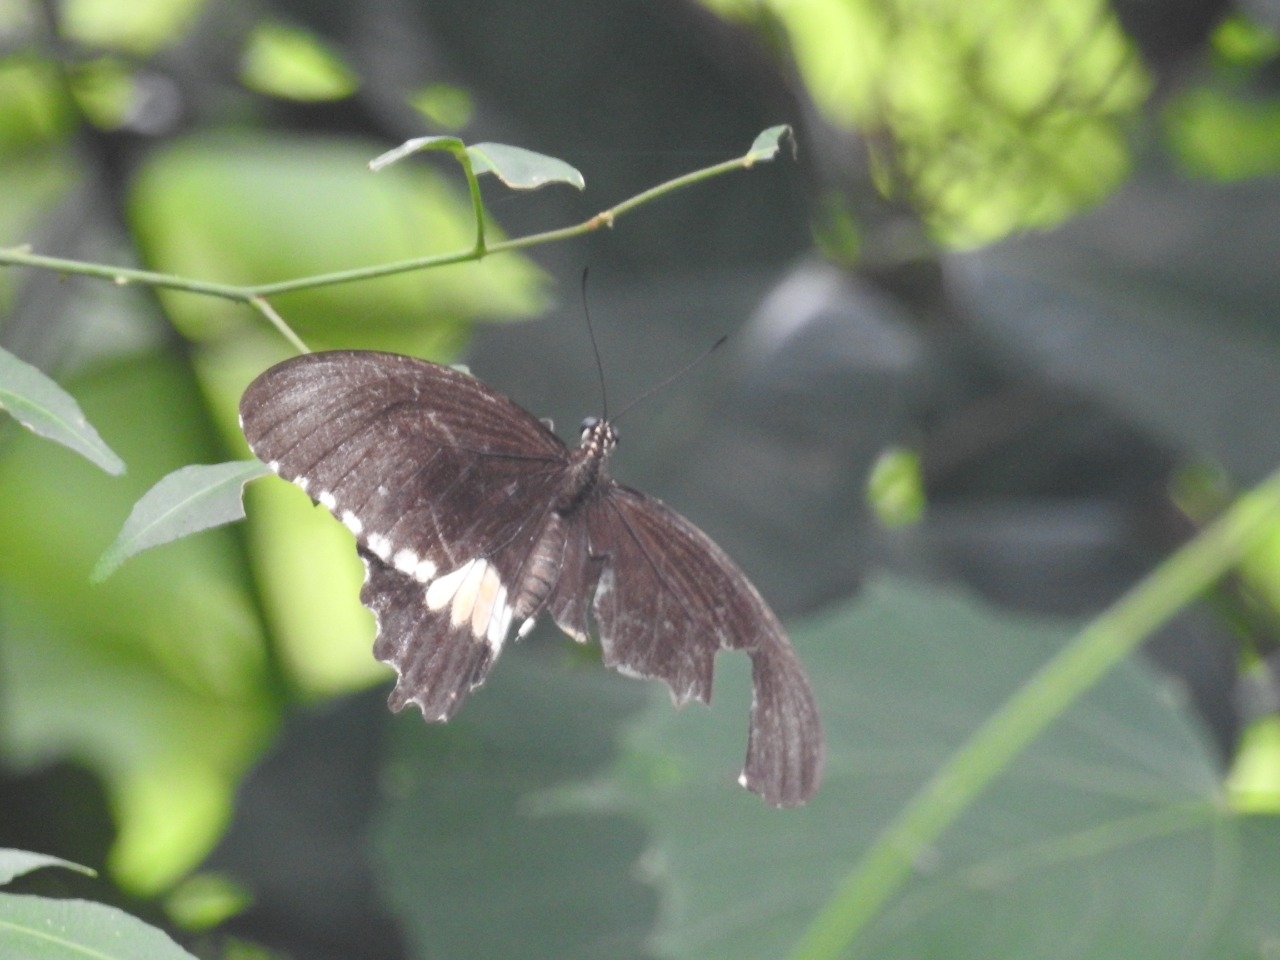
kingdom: Animalia
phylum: Arthropoda
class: Insecta
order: Lepidoptera
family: Papilionidae
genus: Papilio
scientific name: Papilio janaka
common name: Himalayan tailed redbreast
